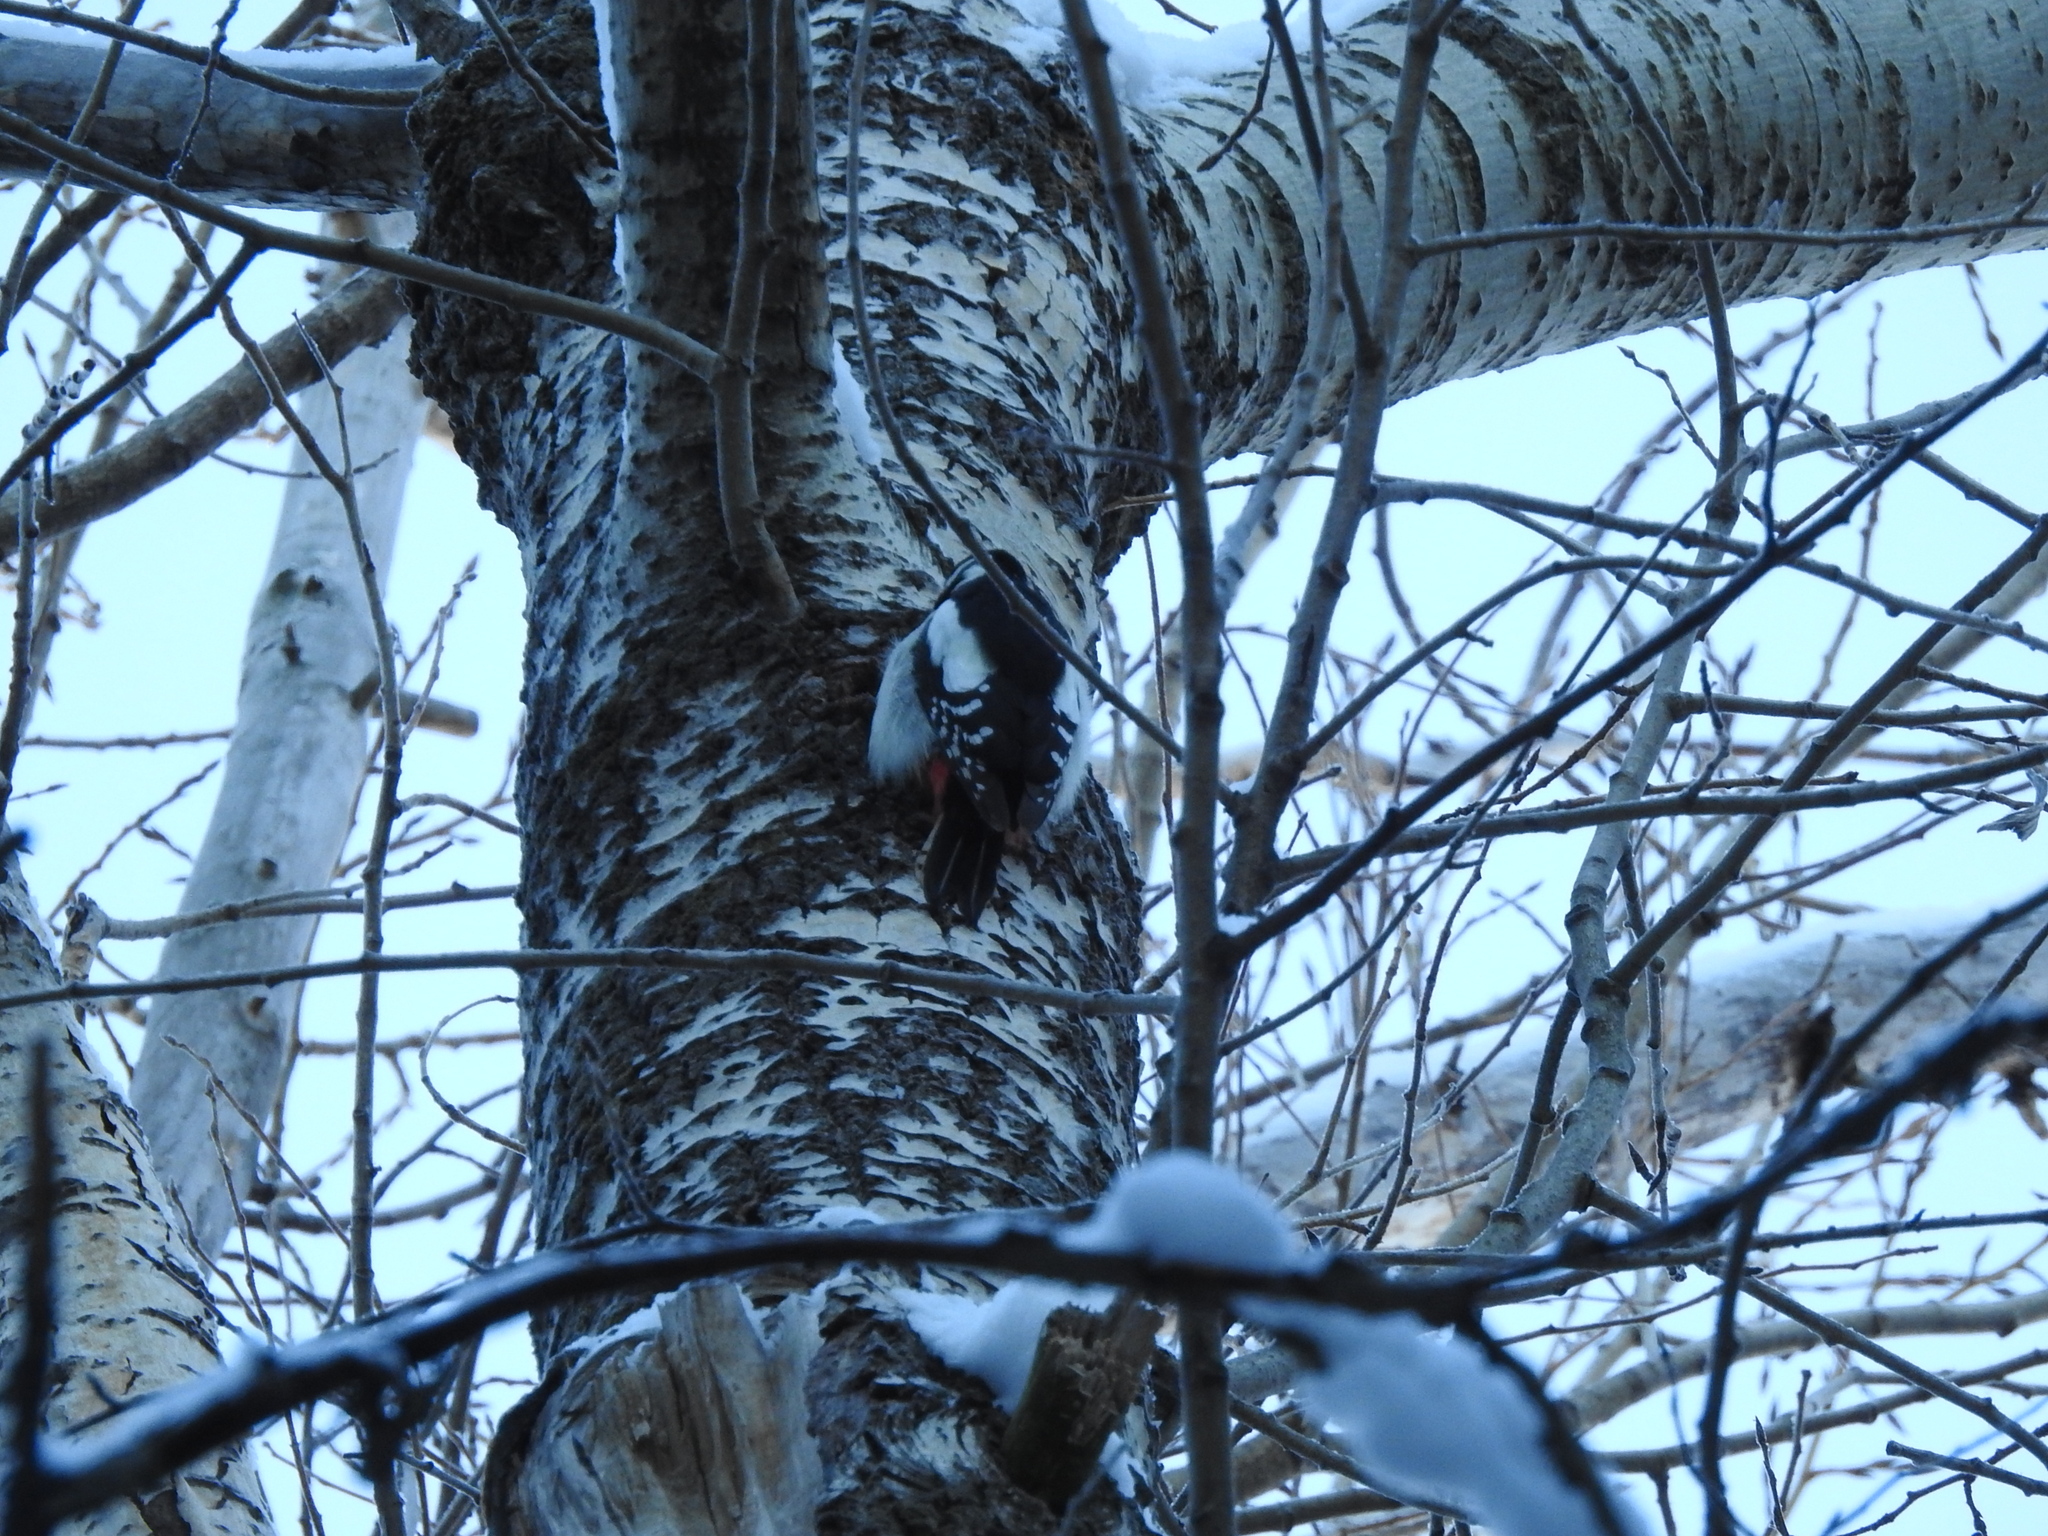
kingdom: Animalia
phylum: Chordata
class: Aves
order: Piciformes
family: Picidae
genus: Dendrocopos
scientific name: Dendrocopos major
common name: Great spotted woodpecker
